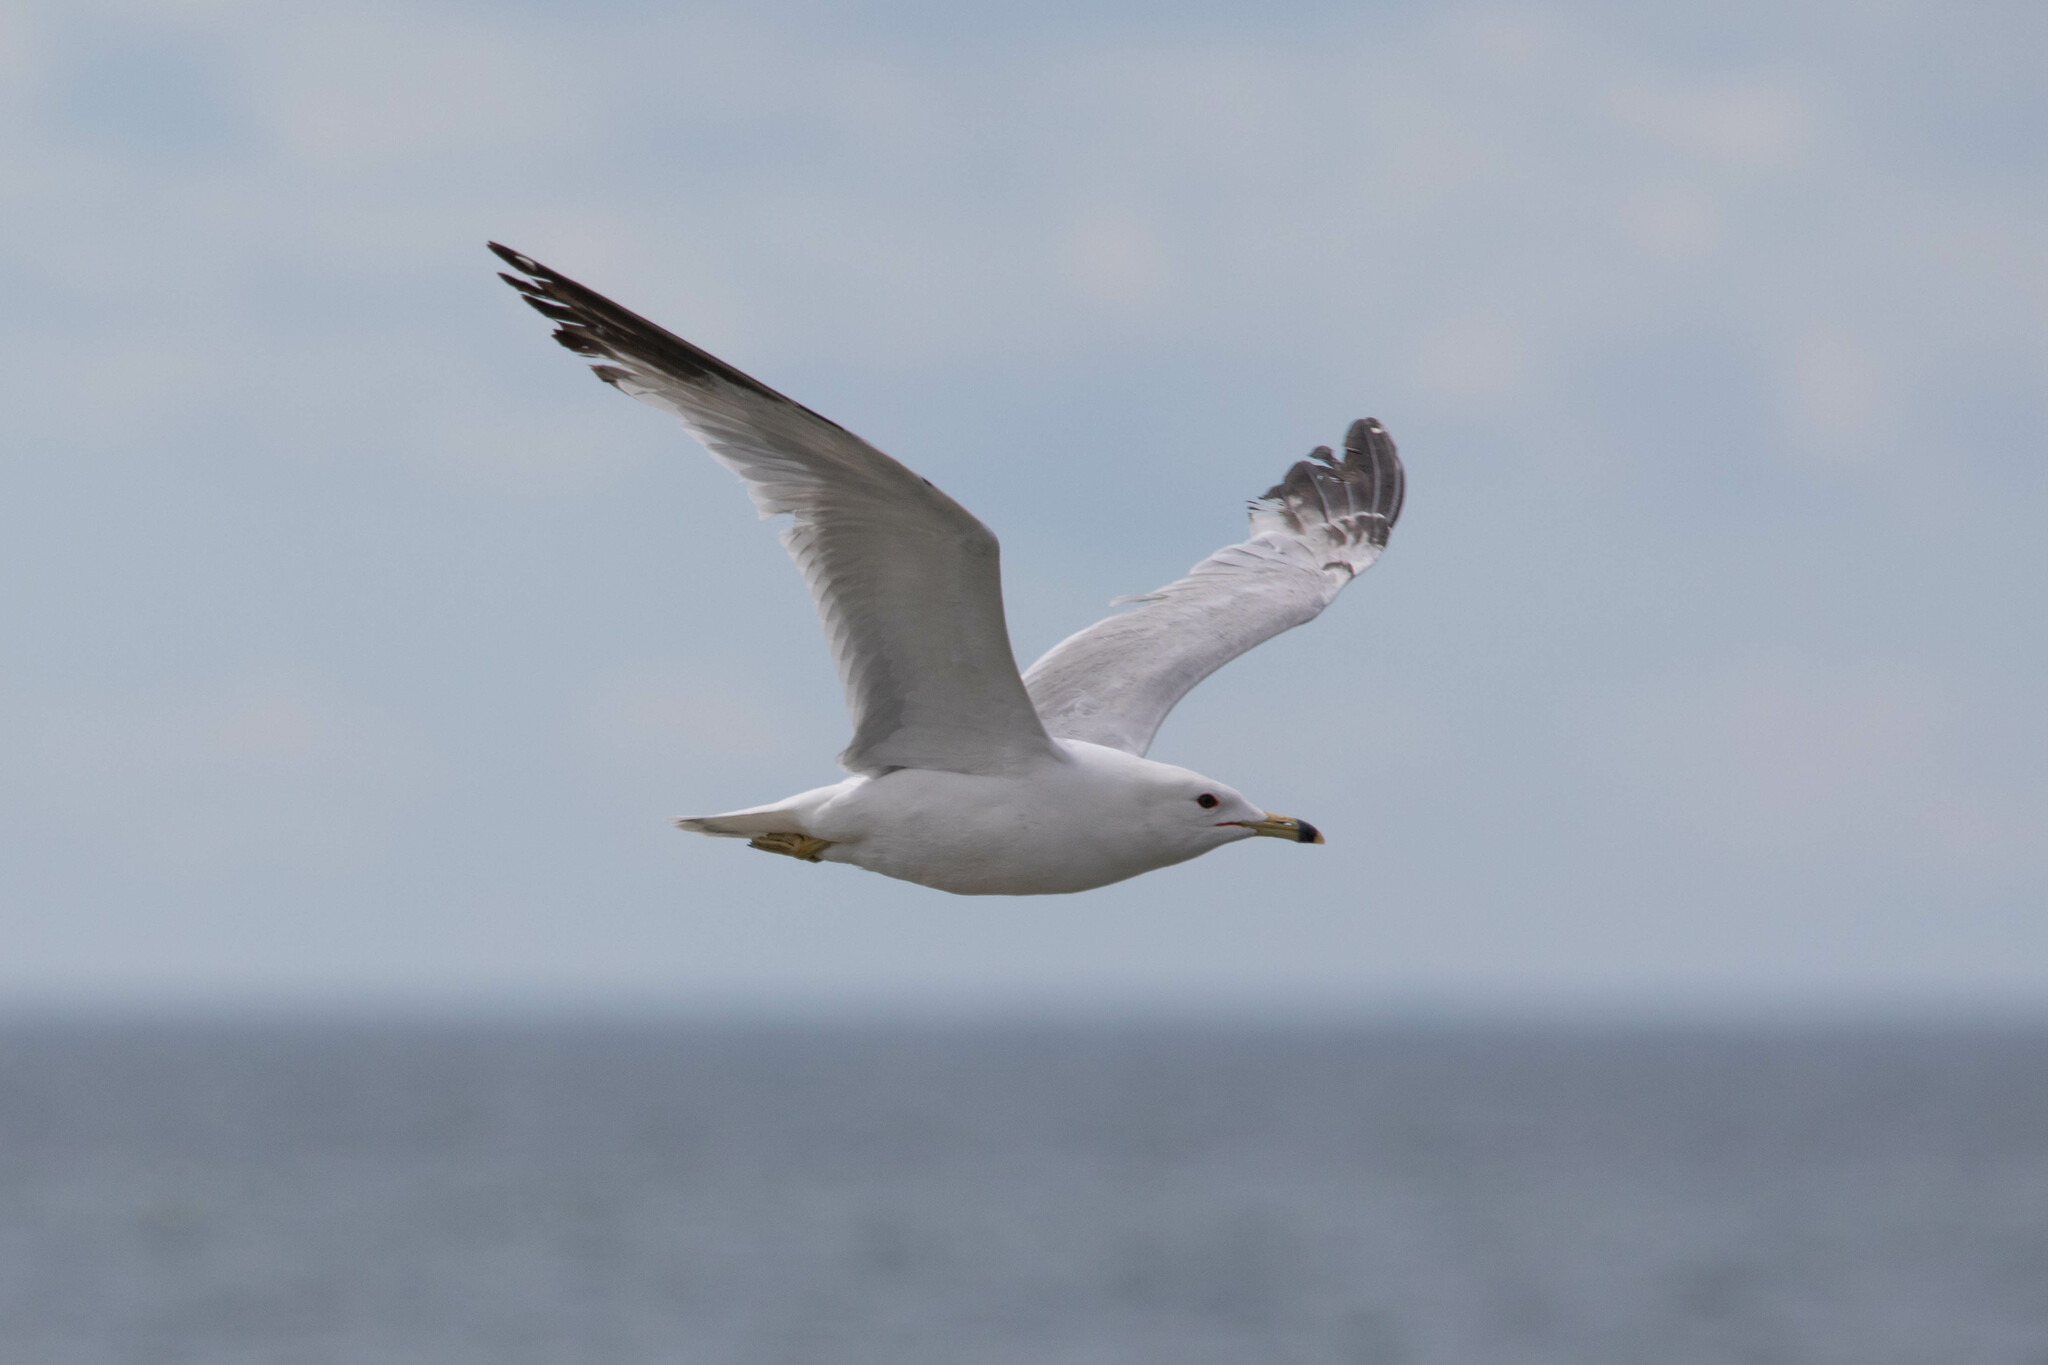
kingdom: Animalia
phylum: Chordata
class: Aves
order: Charadriiformes
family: Laridae
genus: Larus
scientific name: Larus delawarensis
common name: Ring-billed gull
